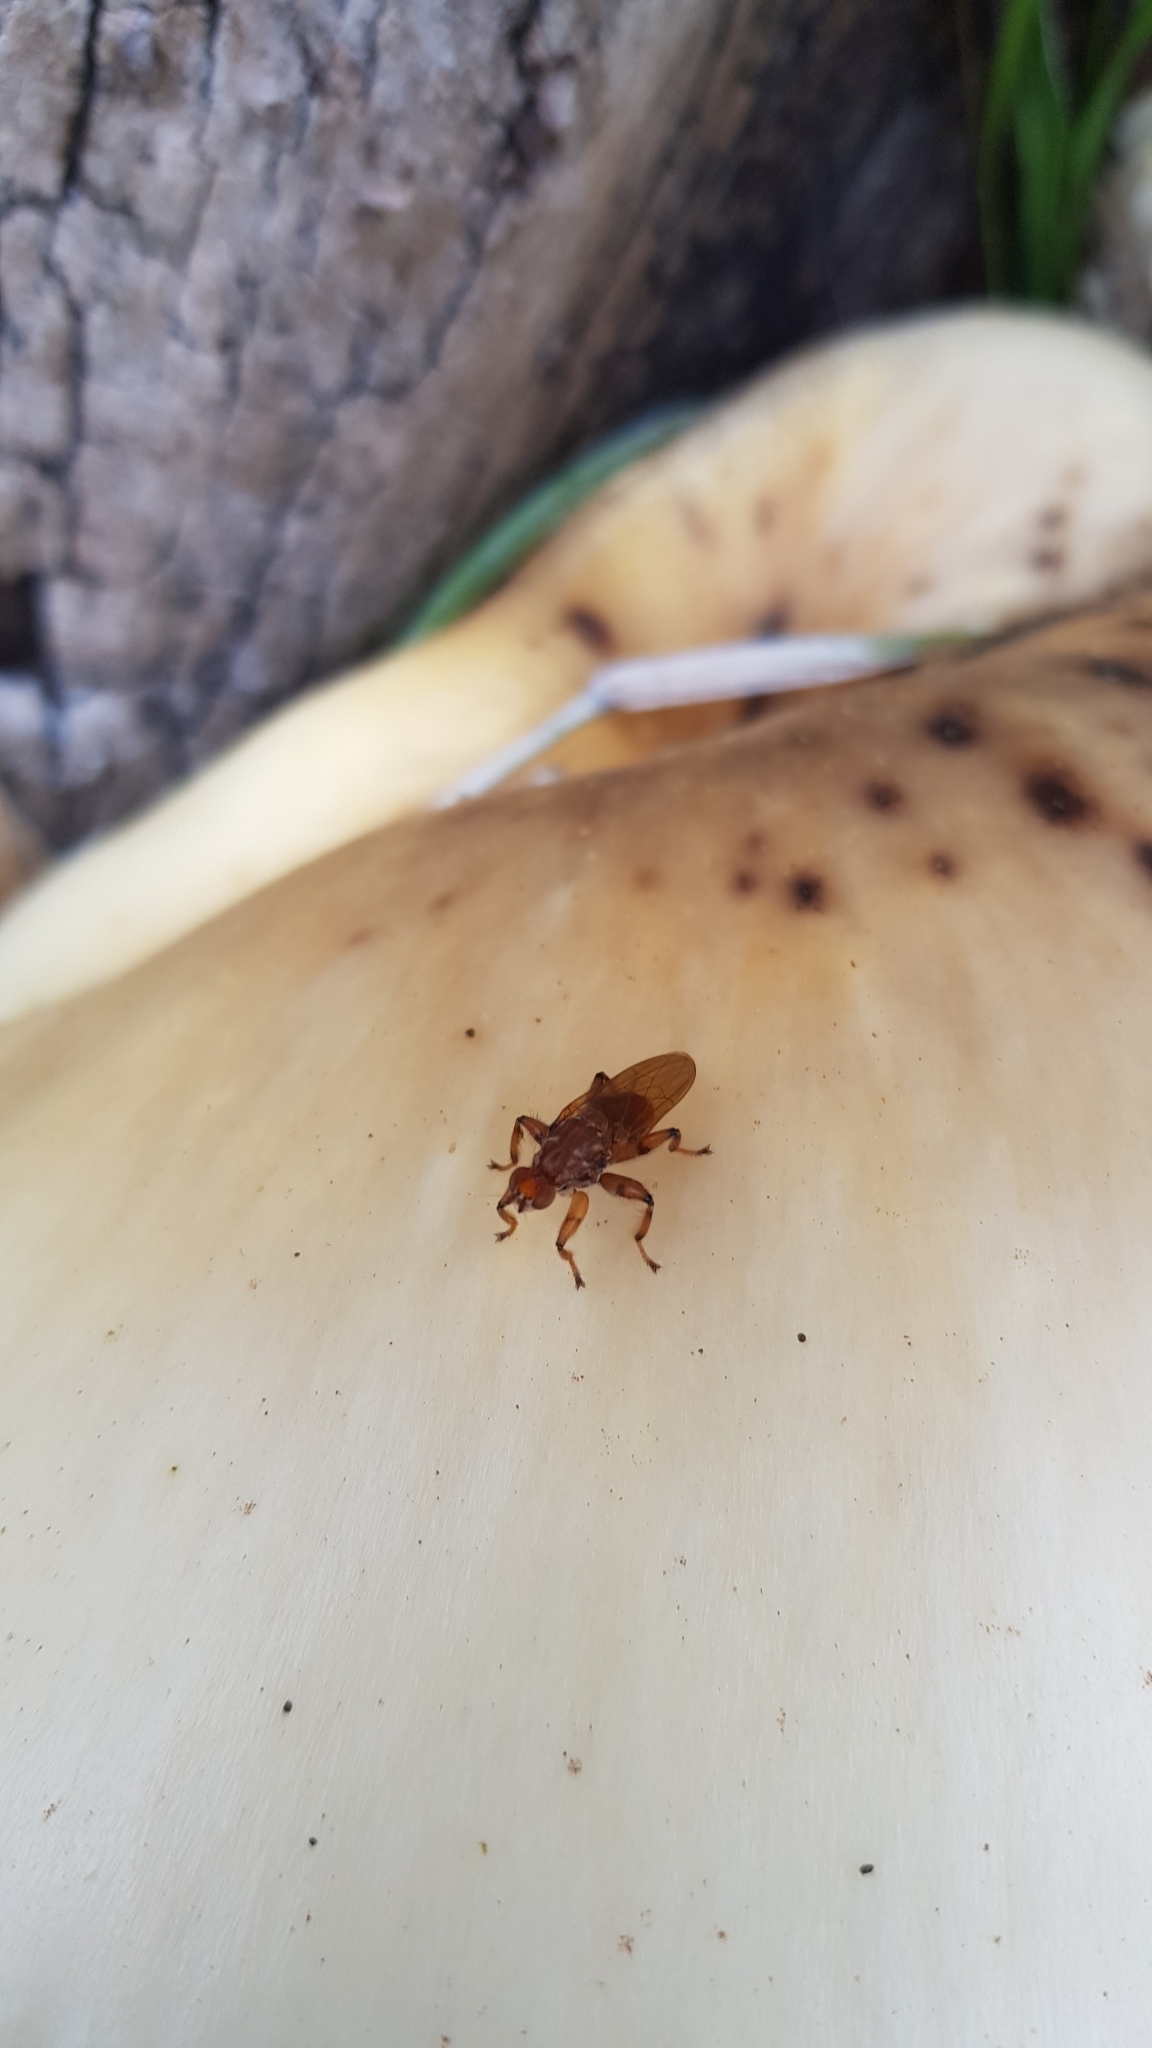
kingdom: Animalia
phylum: Arthropoda
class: Insecta
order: Diptera
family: Heleomyzidae
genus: Tapeigaster
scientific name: Tapeigaster luteipennis
